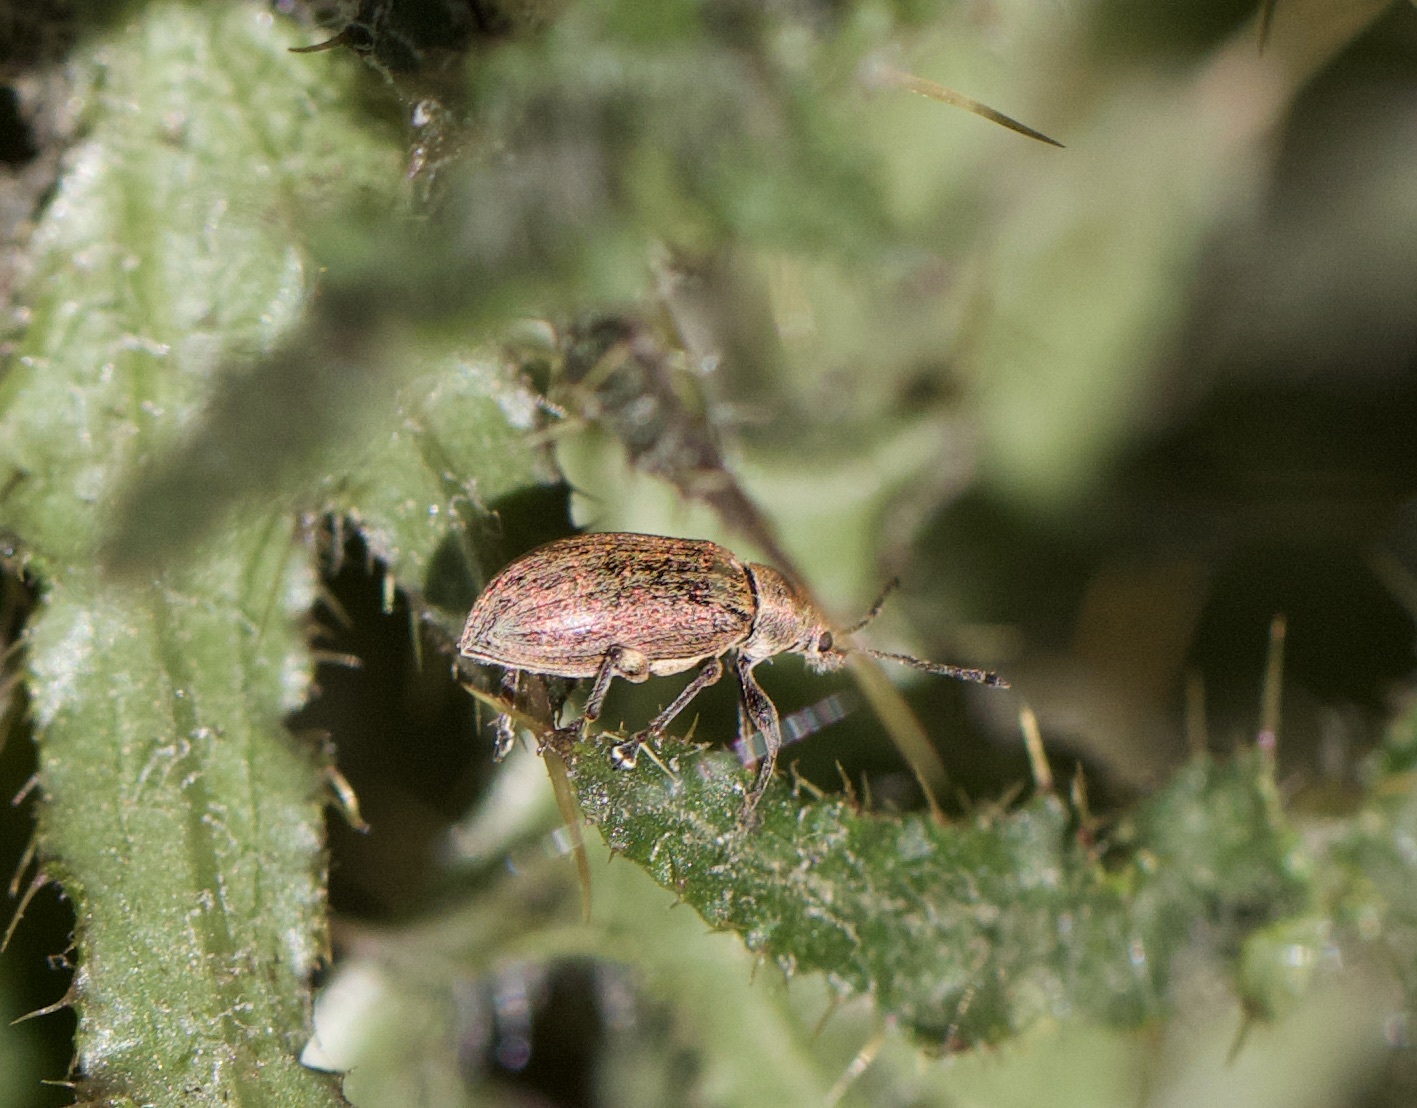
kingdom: Animalia
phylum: Arthropoda
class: Insecta
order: Coleoptera
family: Curculionidae
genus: Phyllobius
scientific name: Phyllobius pyri
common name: Common leaf weevil
